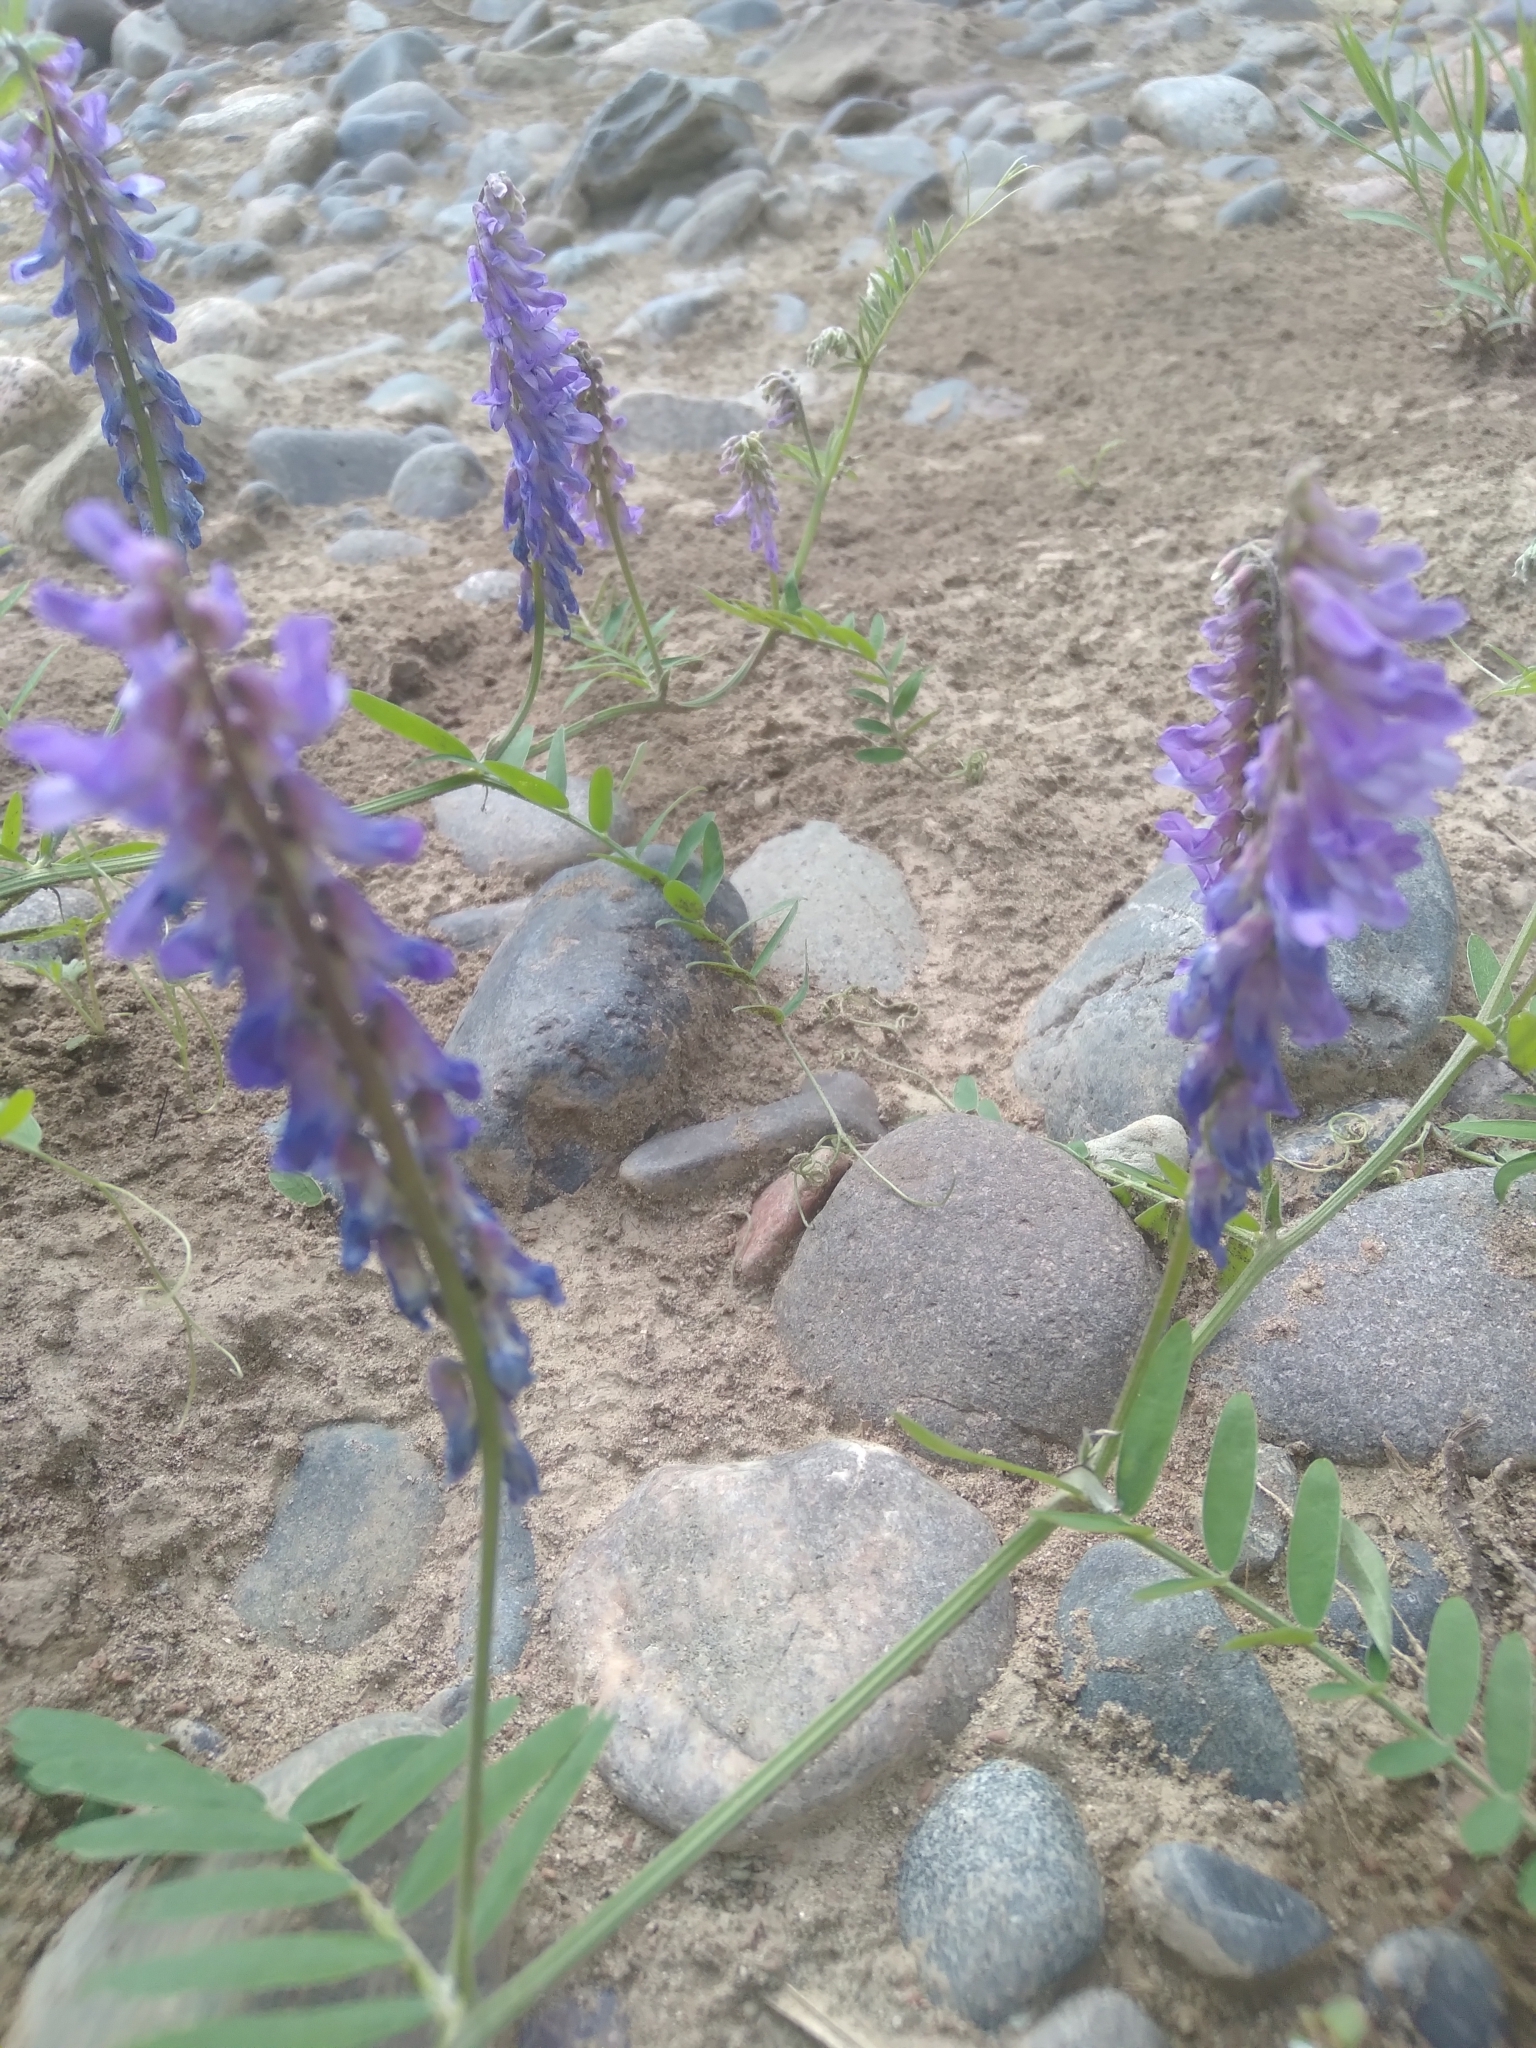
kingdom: Plantae
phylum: Tracheophyta
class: Magnoliopsida
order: Fabales
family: Fabaceae
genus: Vicia
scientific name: Vicia cracca
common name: Bird vetch
